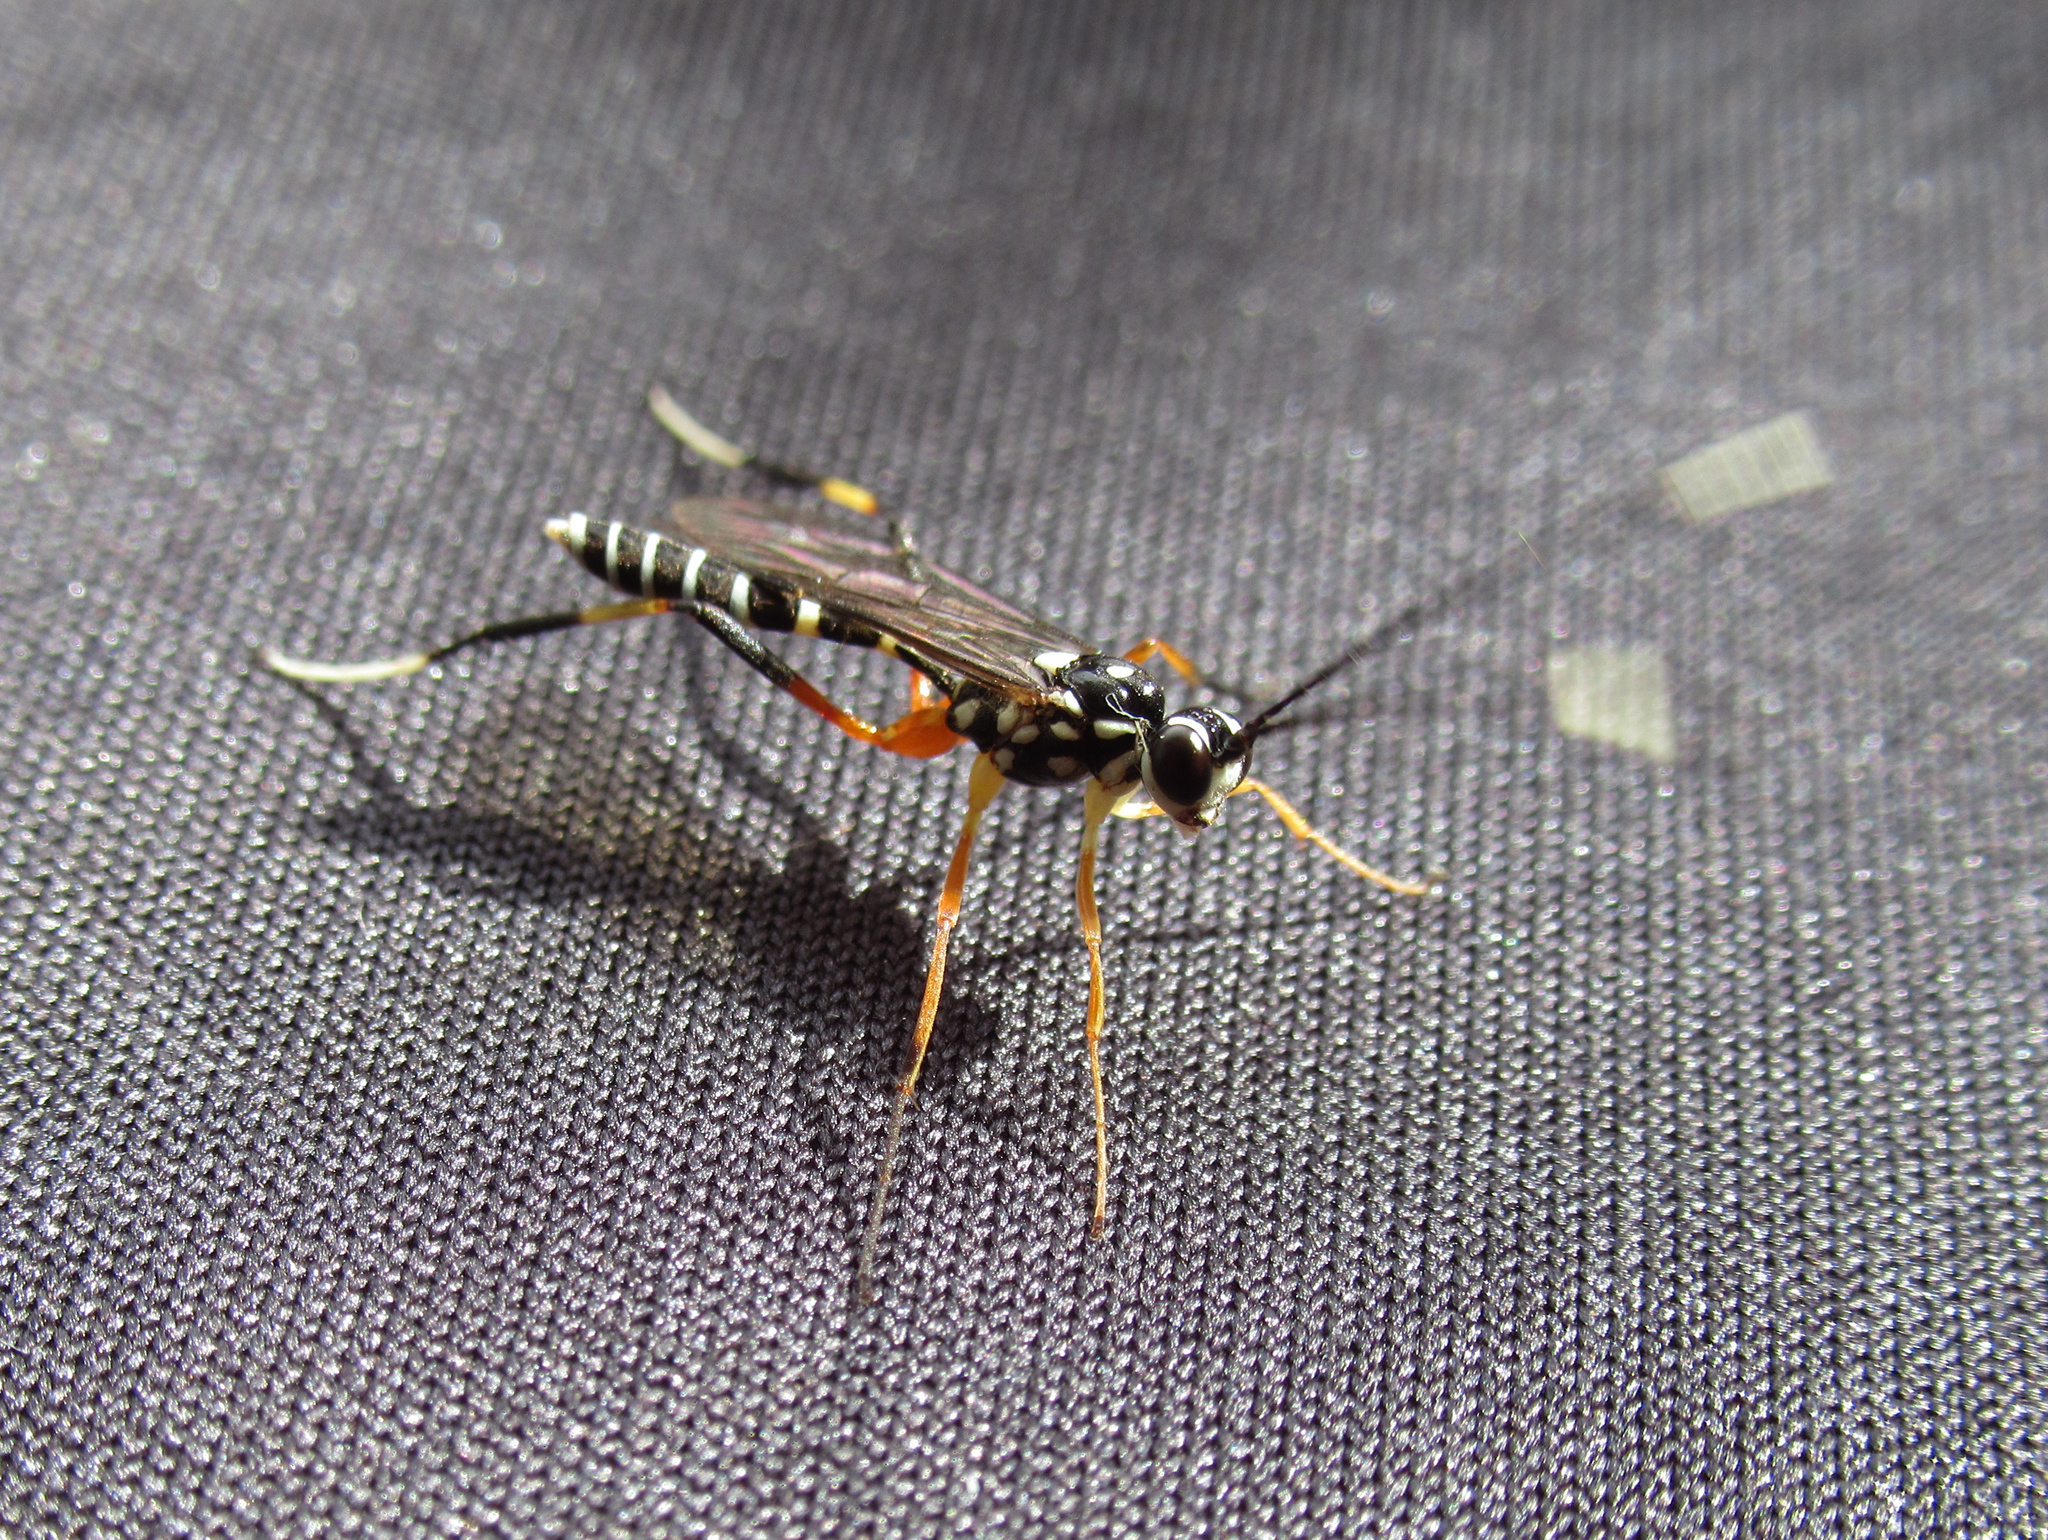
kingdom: Animalia
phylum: Arthropoda
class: Insecta
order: Hymenoptera
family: Ichneumonidae
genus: Xanthocryptus
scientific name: Xanthocryptus novozealandicus
